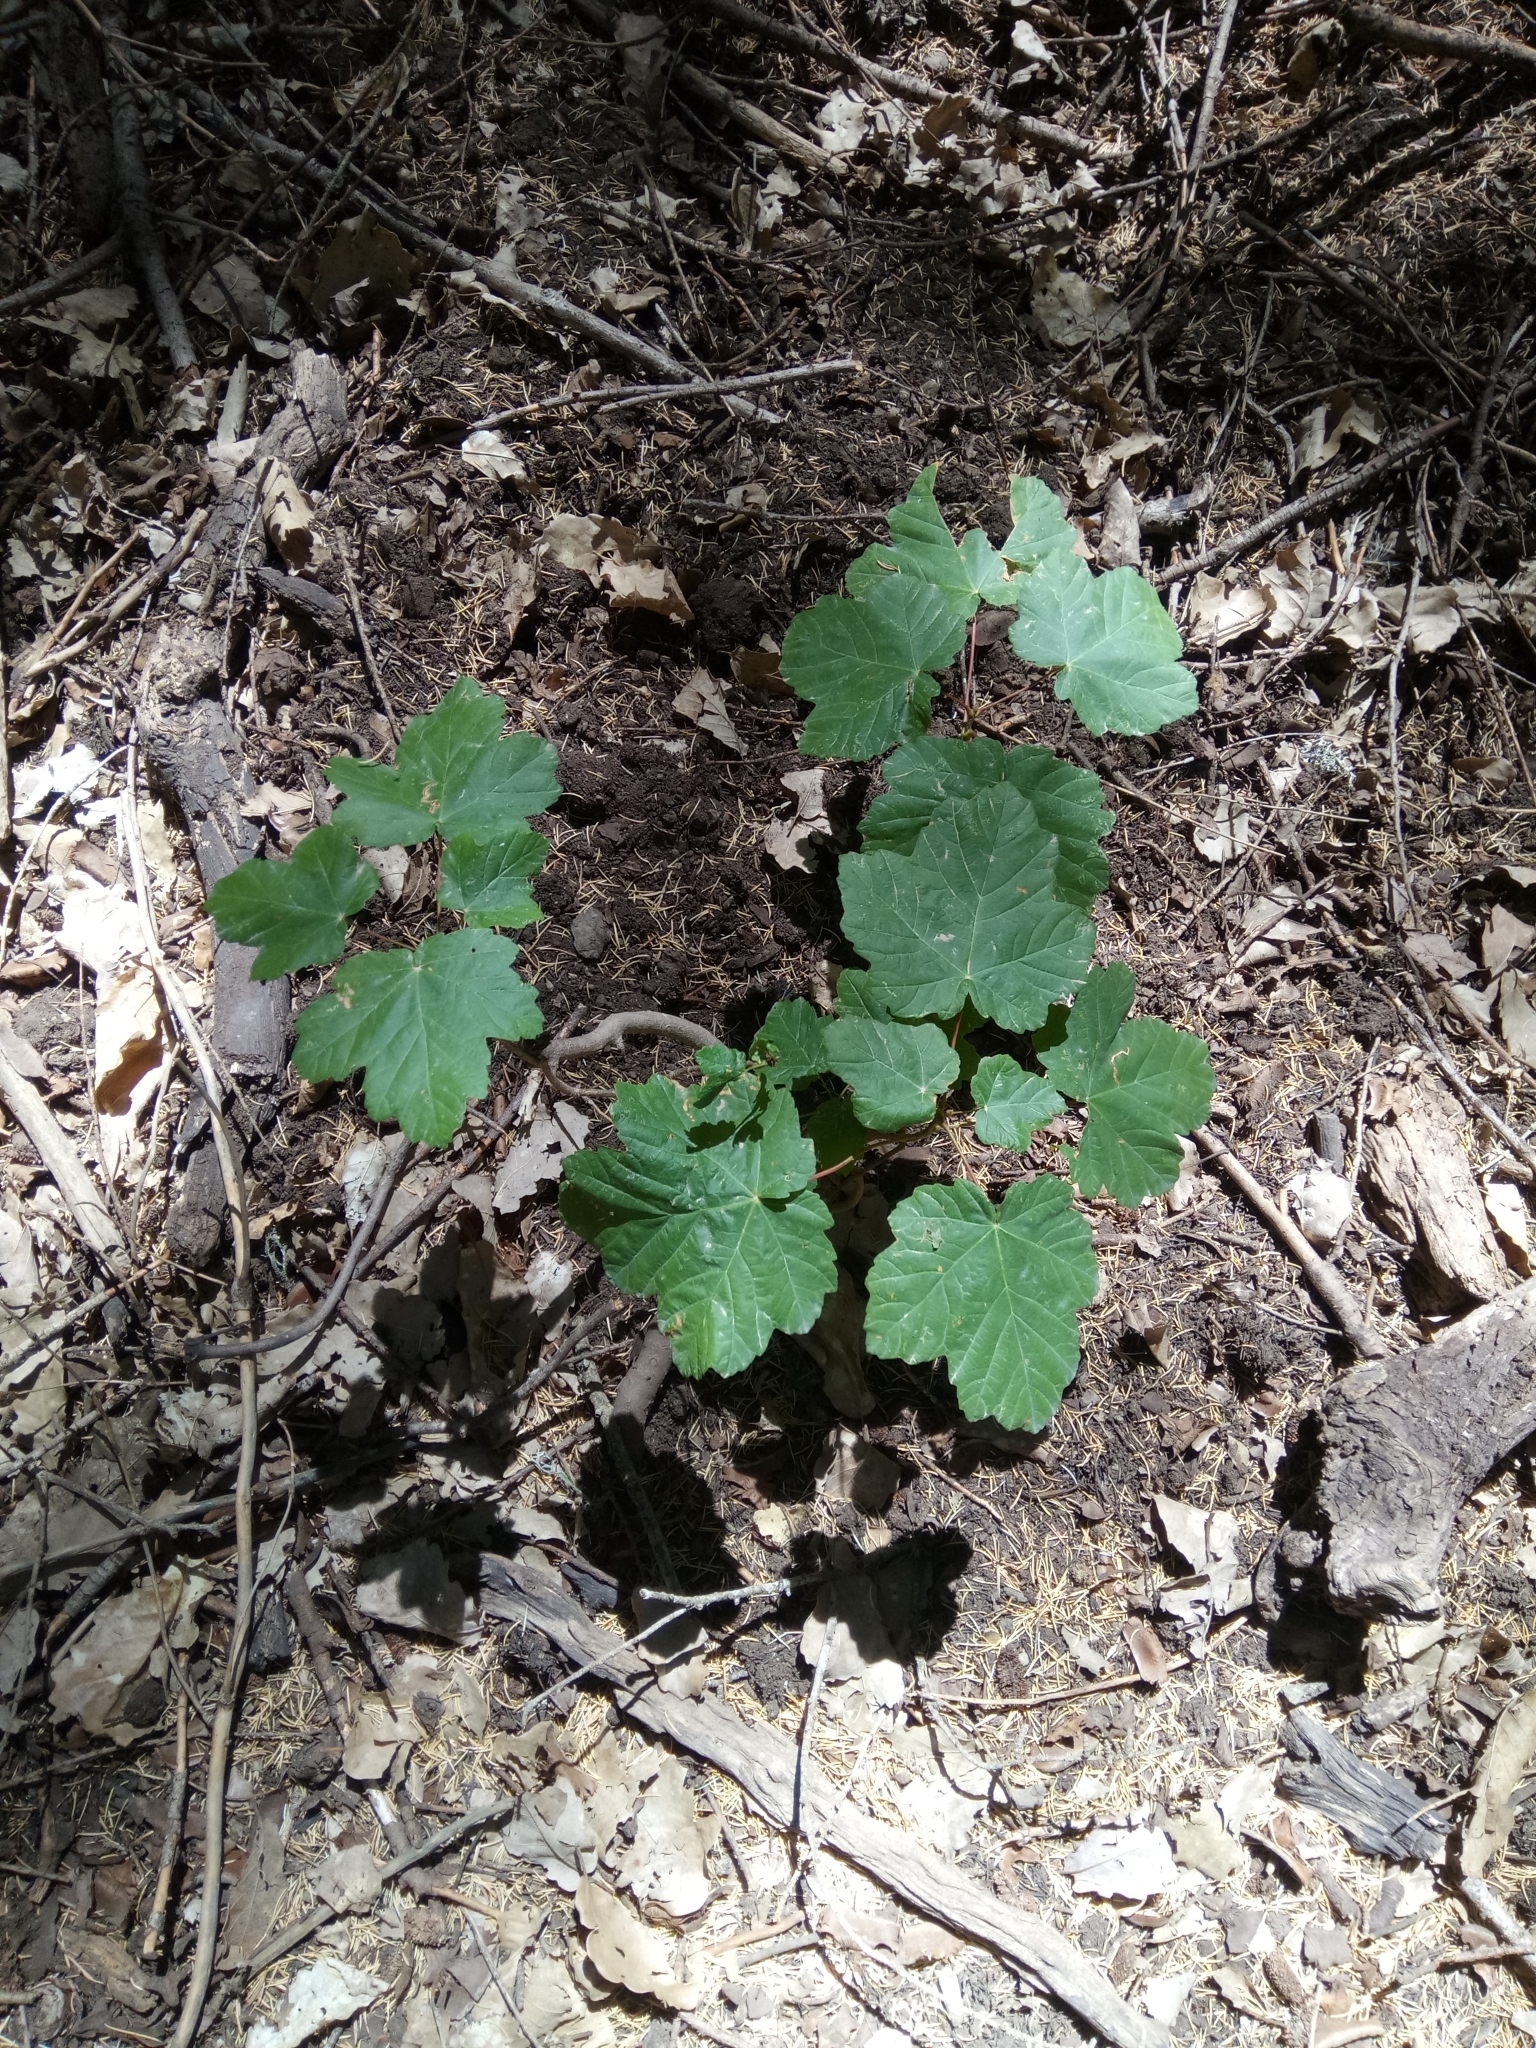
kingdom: Plantae
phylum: Tracheophyta
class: Magnoliopsida
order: Sapindales
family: Sapindaceae
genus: Acer
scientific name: Acer opalus
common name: Italian maple
